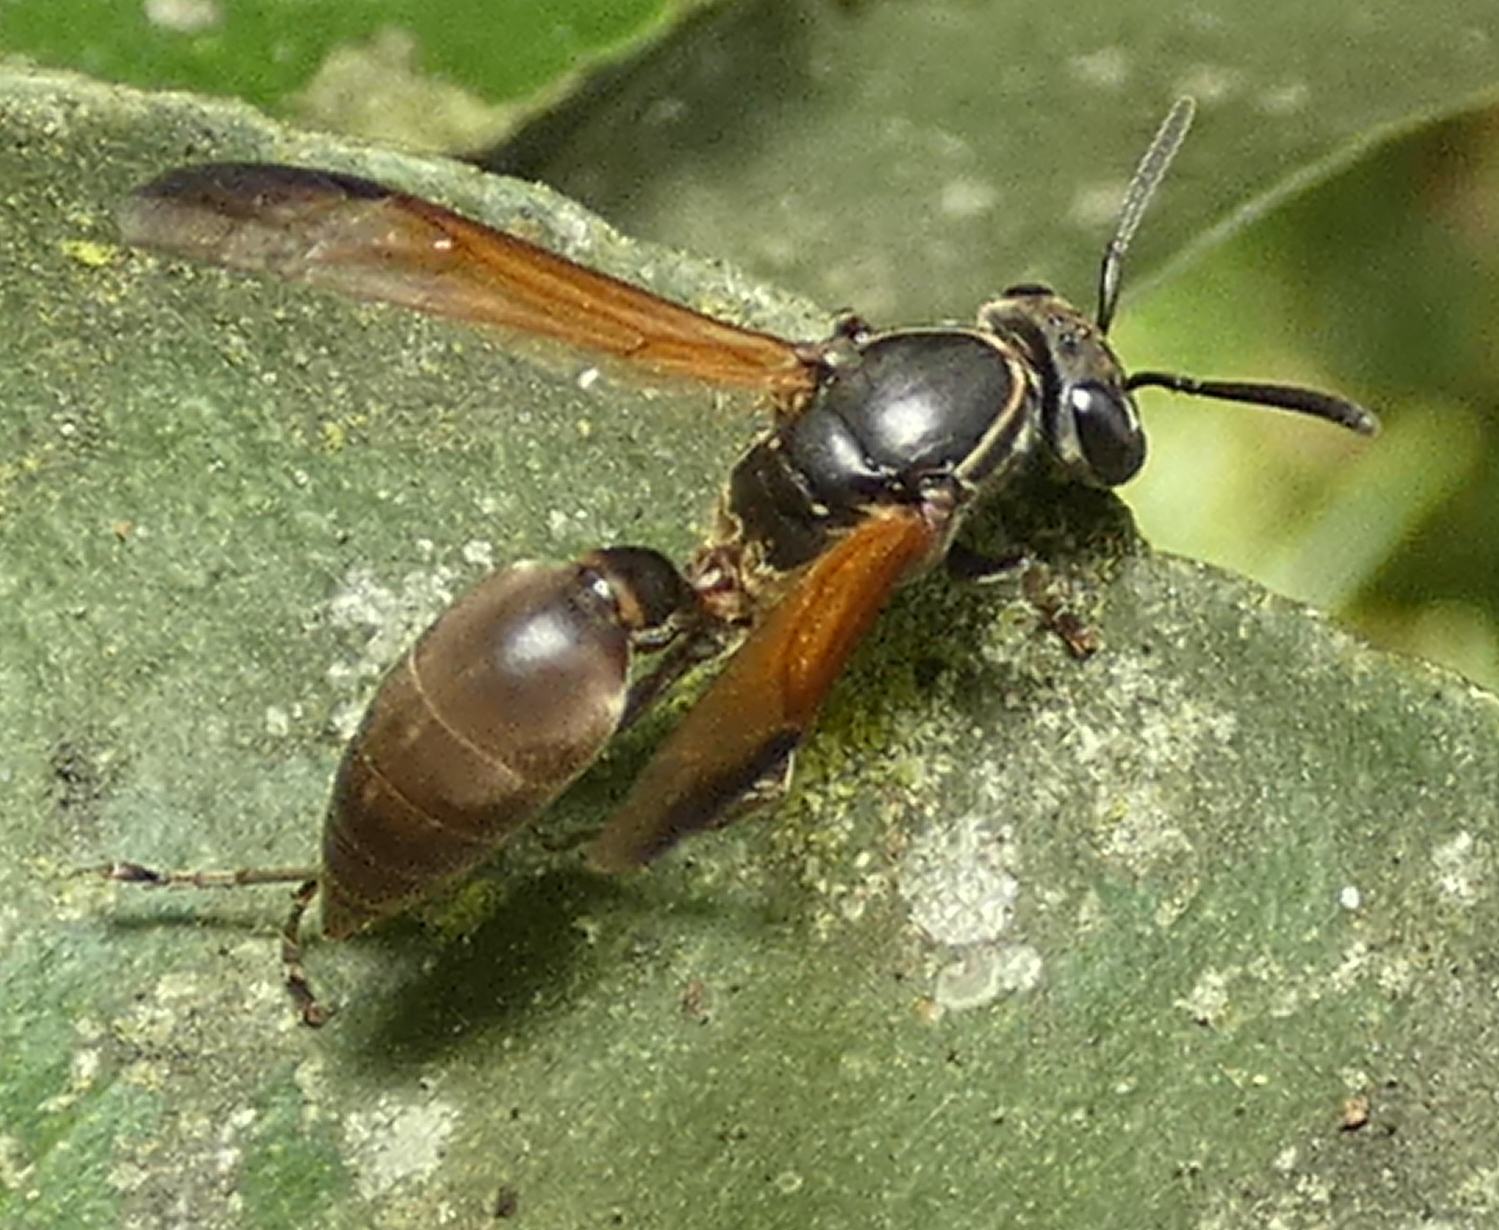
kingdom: Animalia
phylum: Arthropoda
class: Insecta
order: Hymenoptera
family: Eumenidae
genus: Polybia
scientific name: Polybia rejecta
